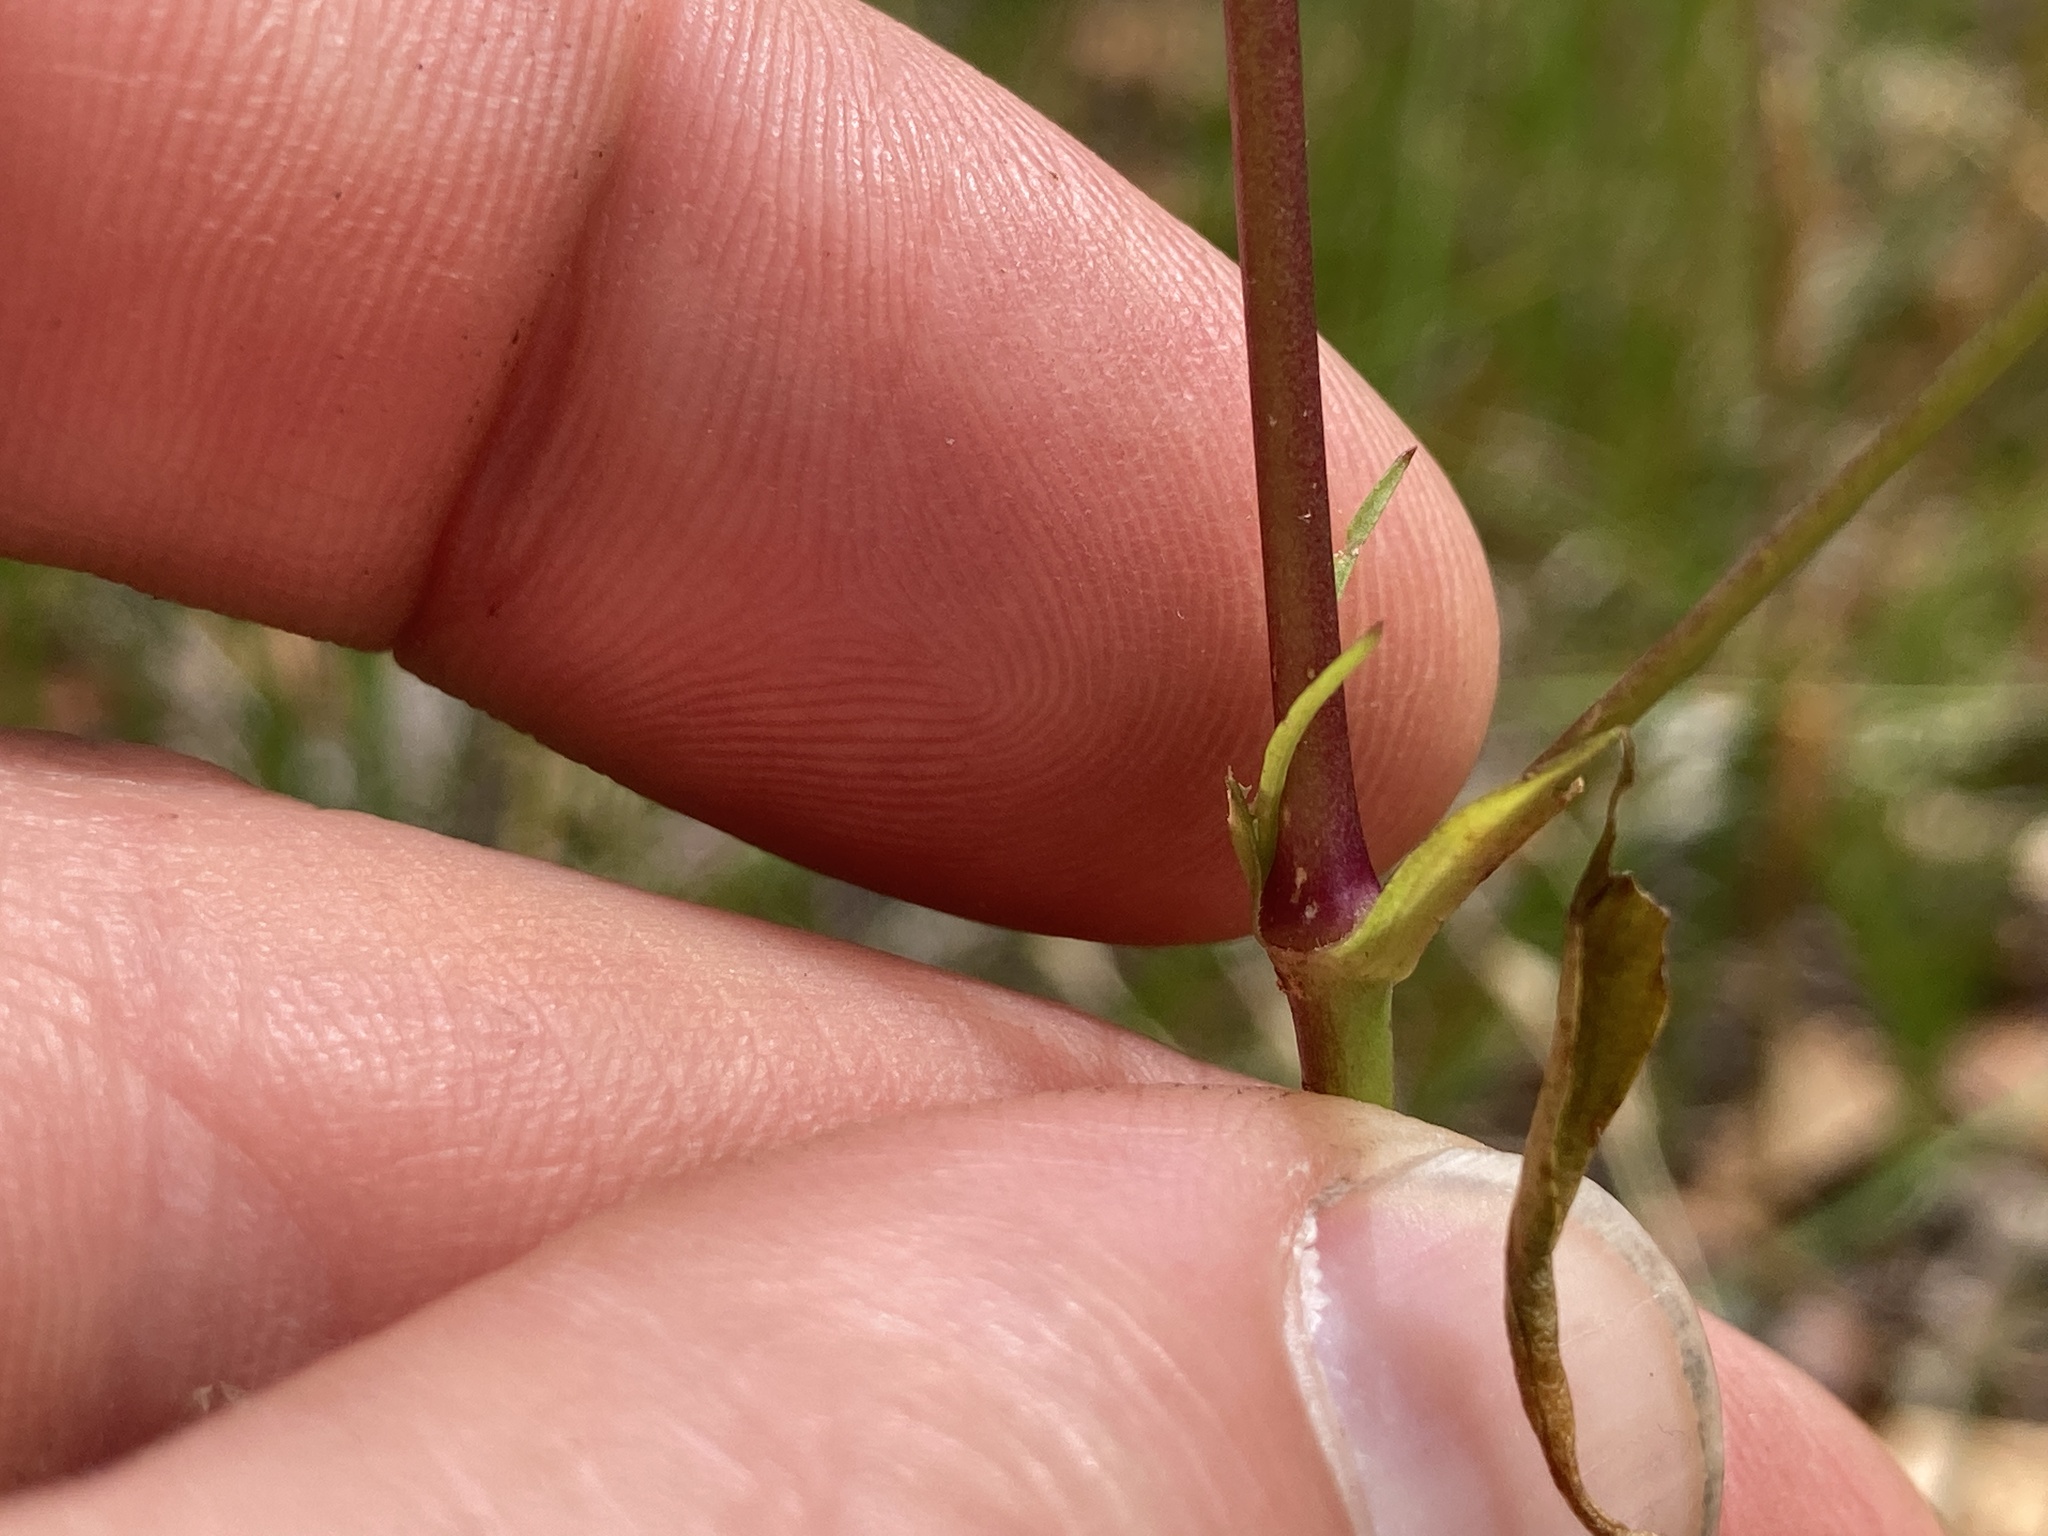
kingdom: Plantae
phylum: Tracheophyta
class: Magnoliopsida
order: Caryophyllales
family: Caryophyllaceae
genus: Silene
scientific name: Silene antirrhina
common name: Sleepy catchfly
